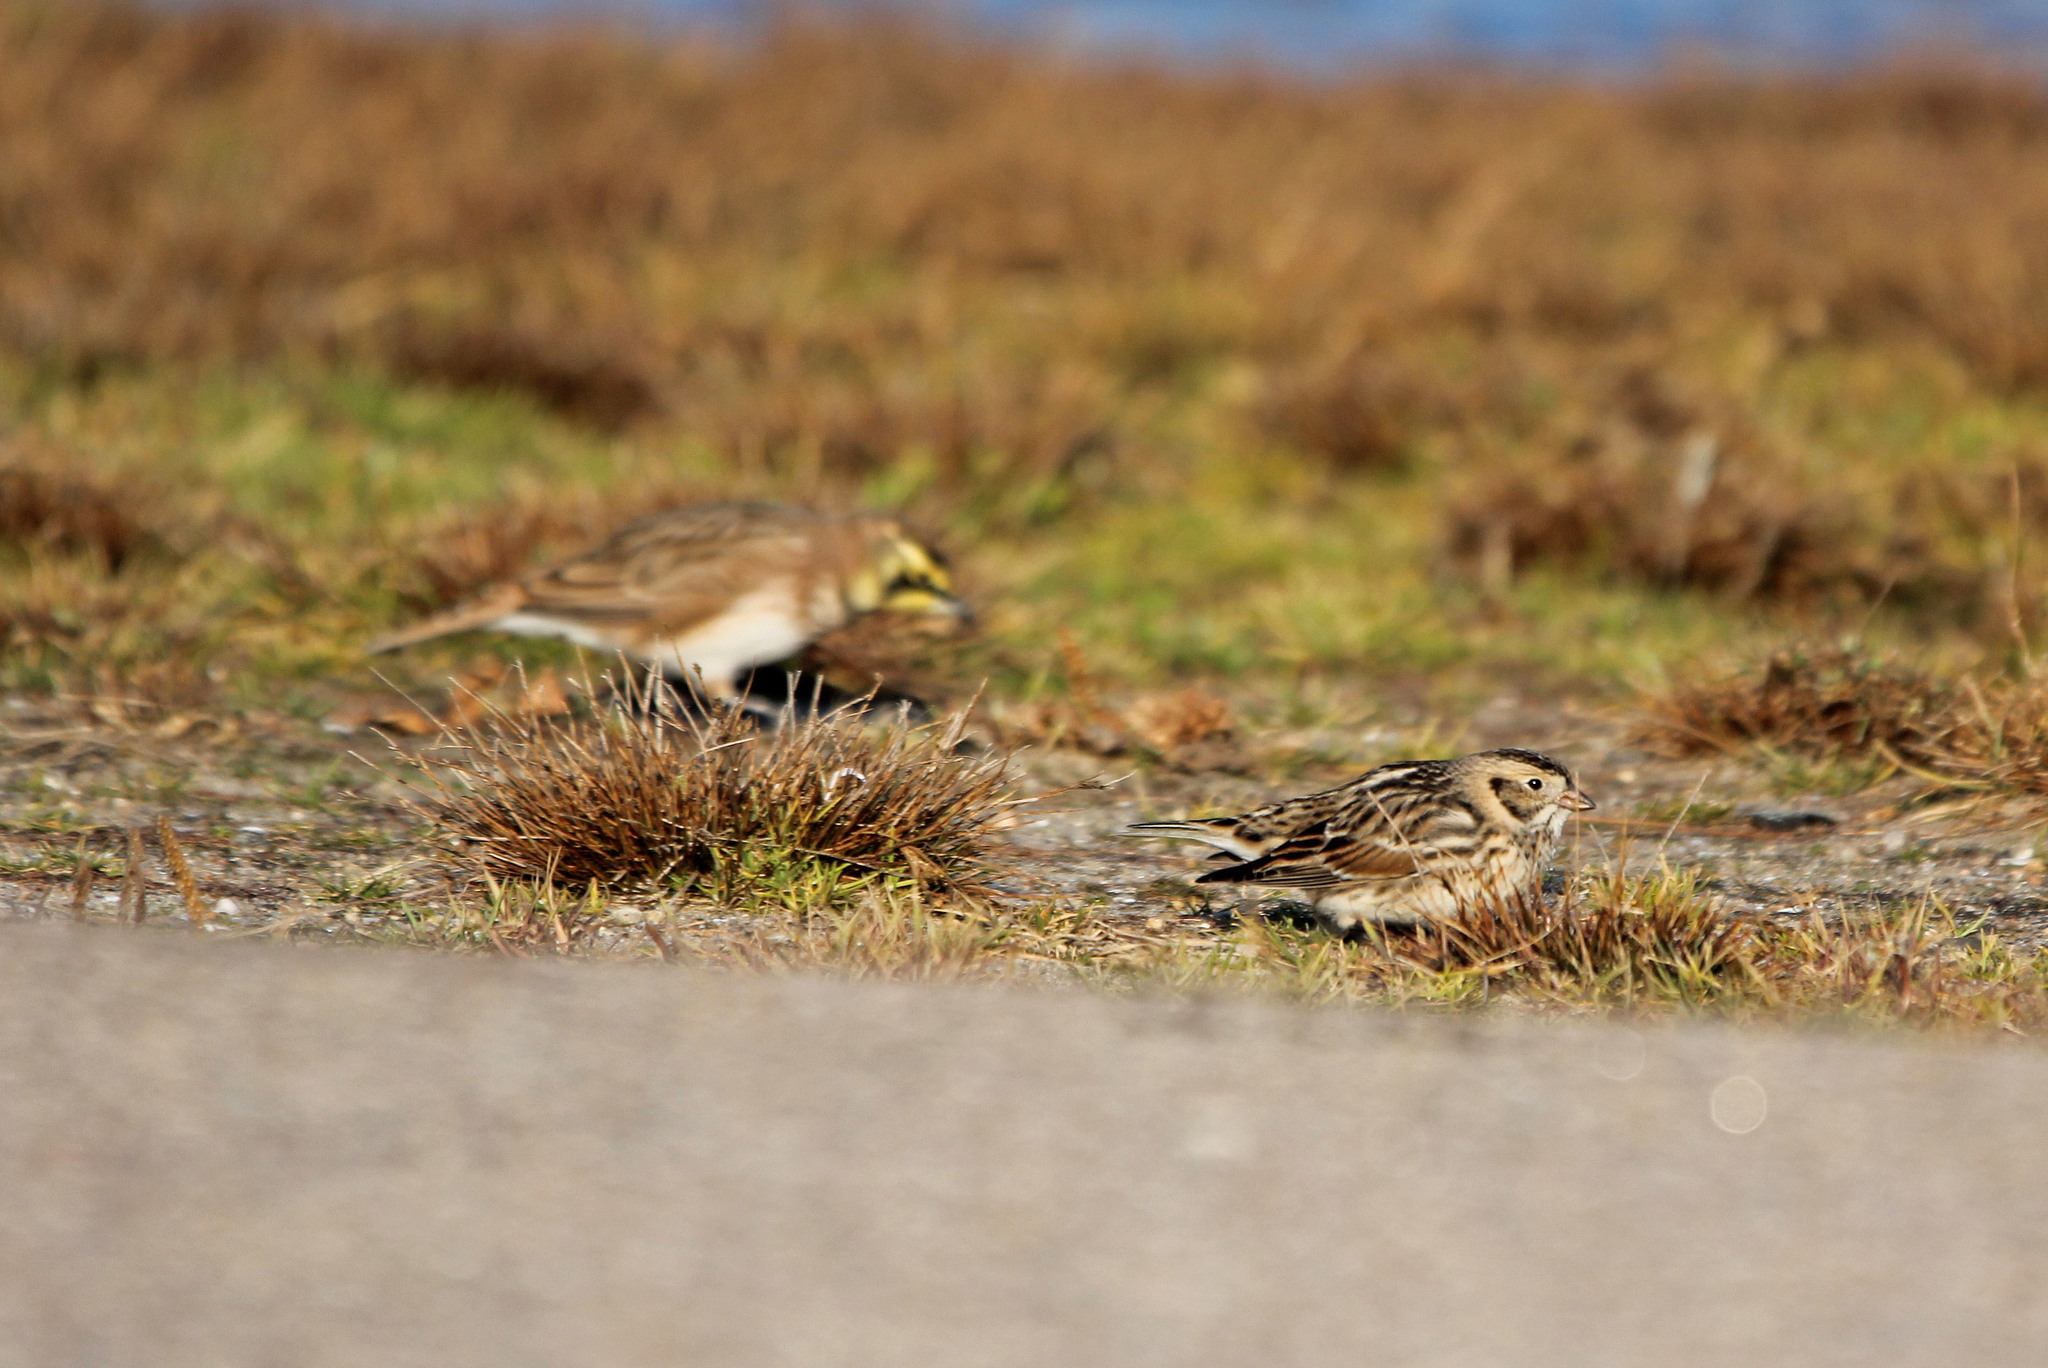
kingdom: Animalia
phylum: Chordata
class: Aves
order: Passeriformes
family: Calcariidae
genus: Calcarius
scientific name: Calcarius lapponicus
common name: Lapland longspur
